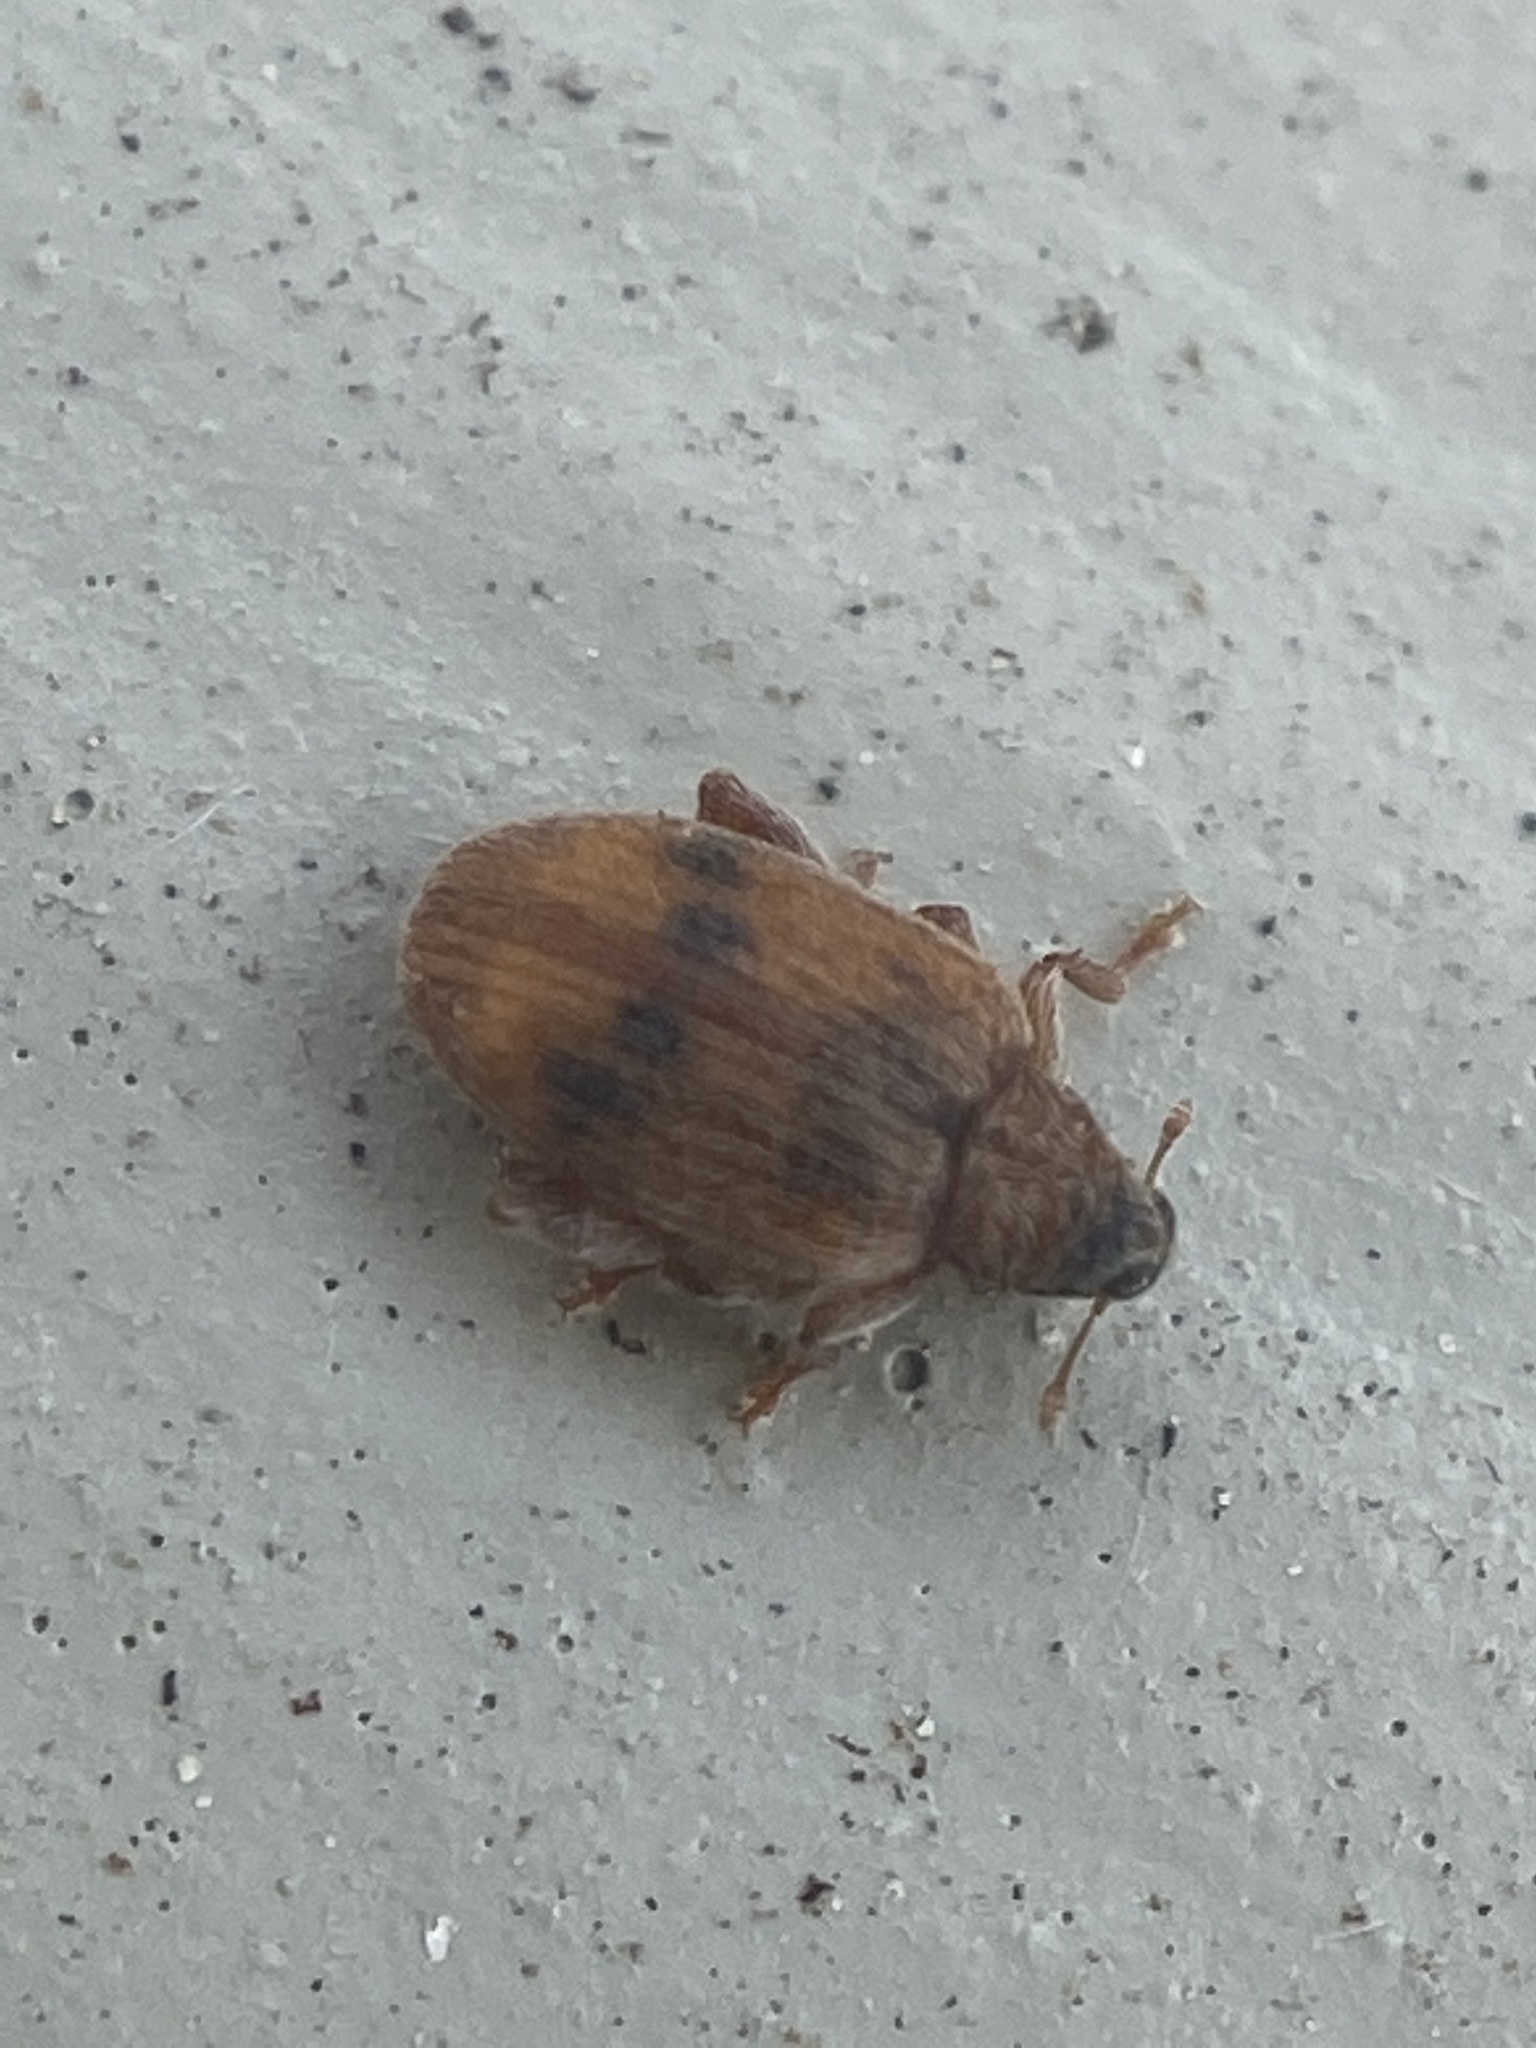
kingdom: Animalia
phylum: Arthropoda
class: Insecta
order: Coleoptera
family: Curculionidae
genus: Orchestes
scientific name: Orchestes steppensis
